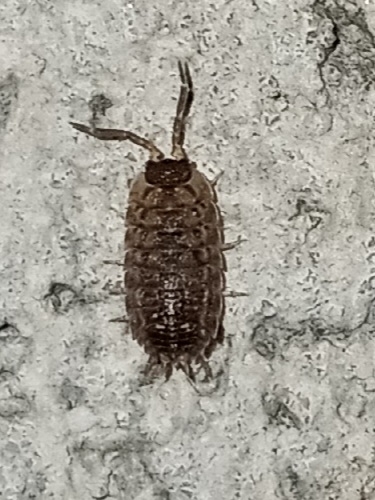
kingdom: Animalia
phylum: Arthropoda
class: Malacostraca
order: Isopoda
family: Porcellionidae
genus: Porcellio
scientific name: Porcellio spinicornis
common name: Painted woodlouse
